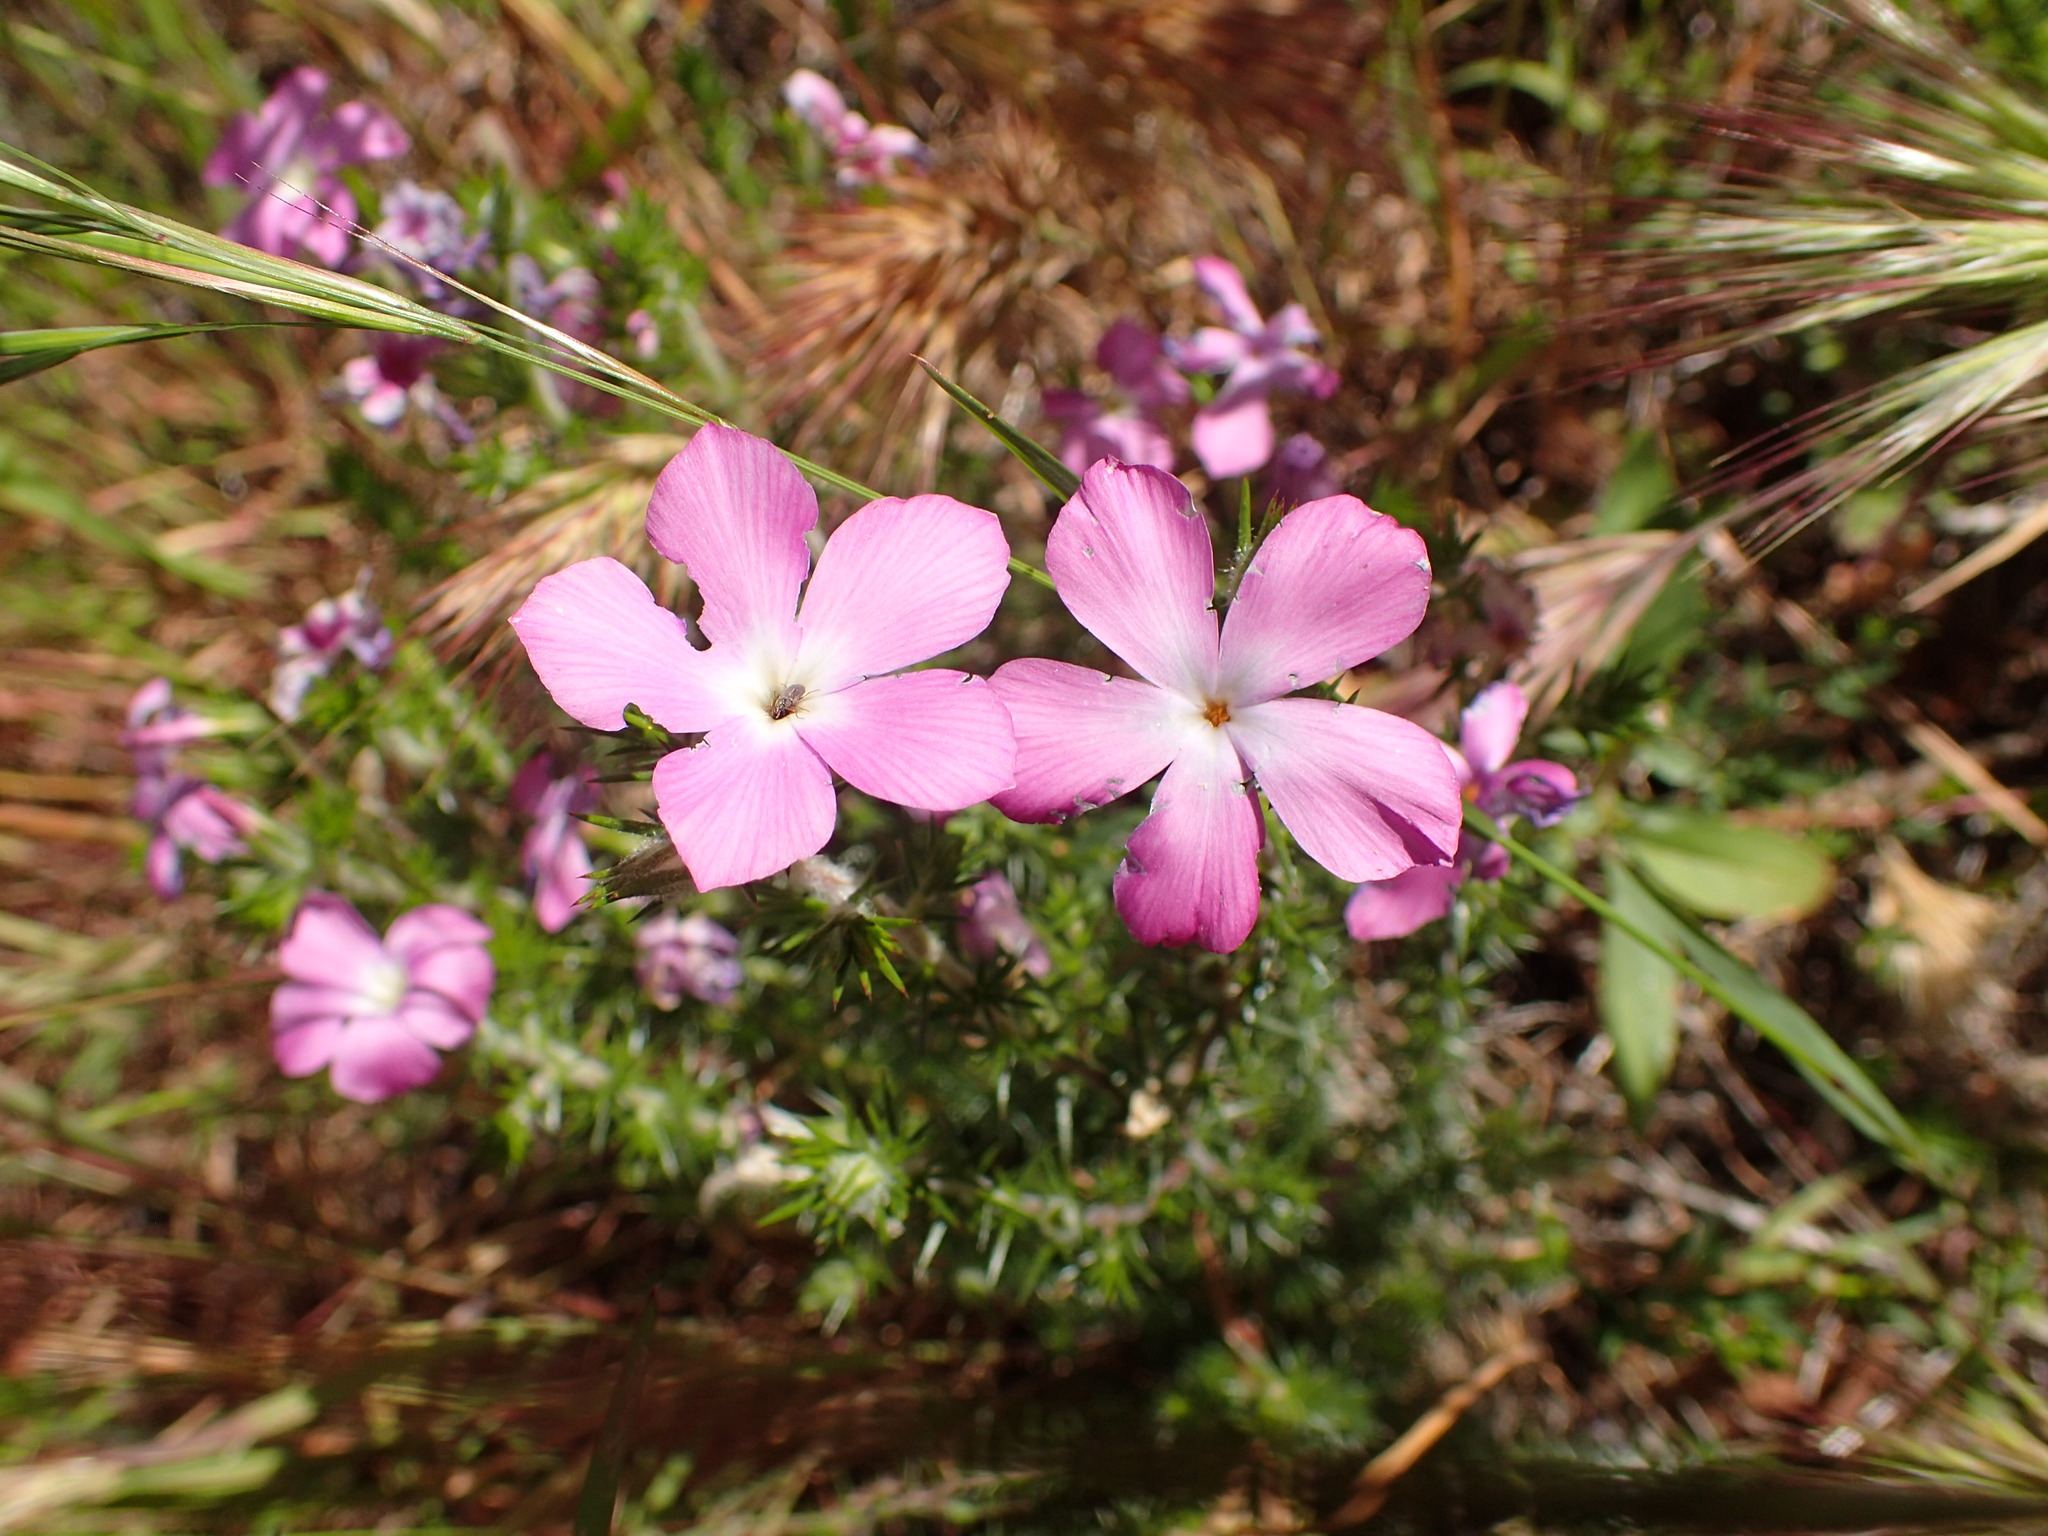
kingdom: Plantae
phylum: Tracheophyta
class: Magnoliopsida
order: Ericales
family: Polemoniaceae
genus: Linanthus
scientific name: Linanthus californicus
